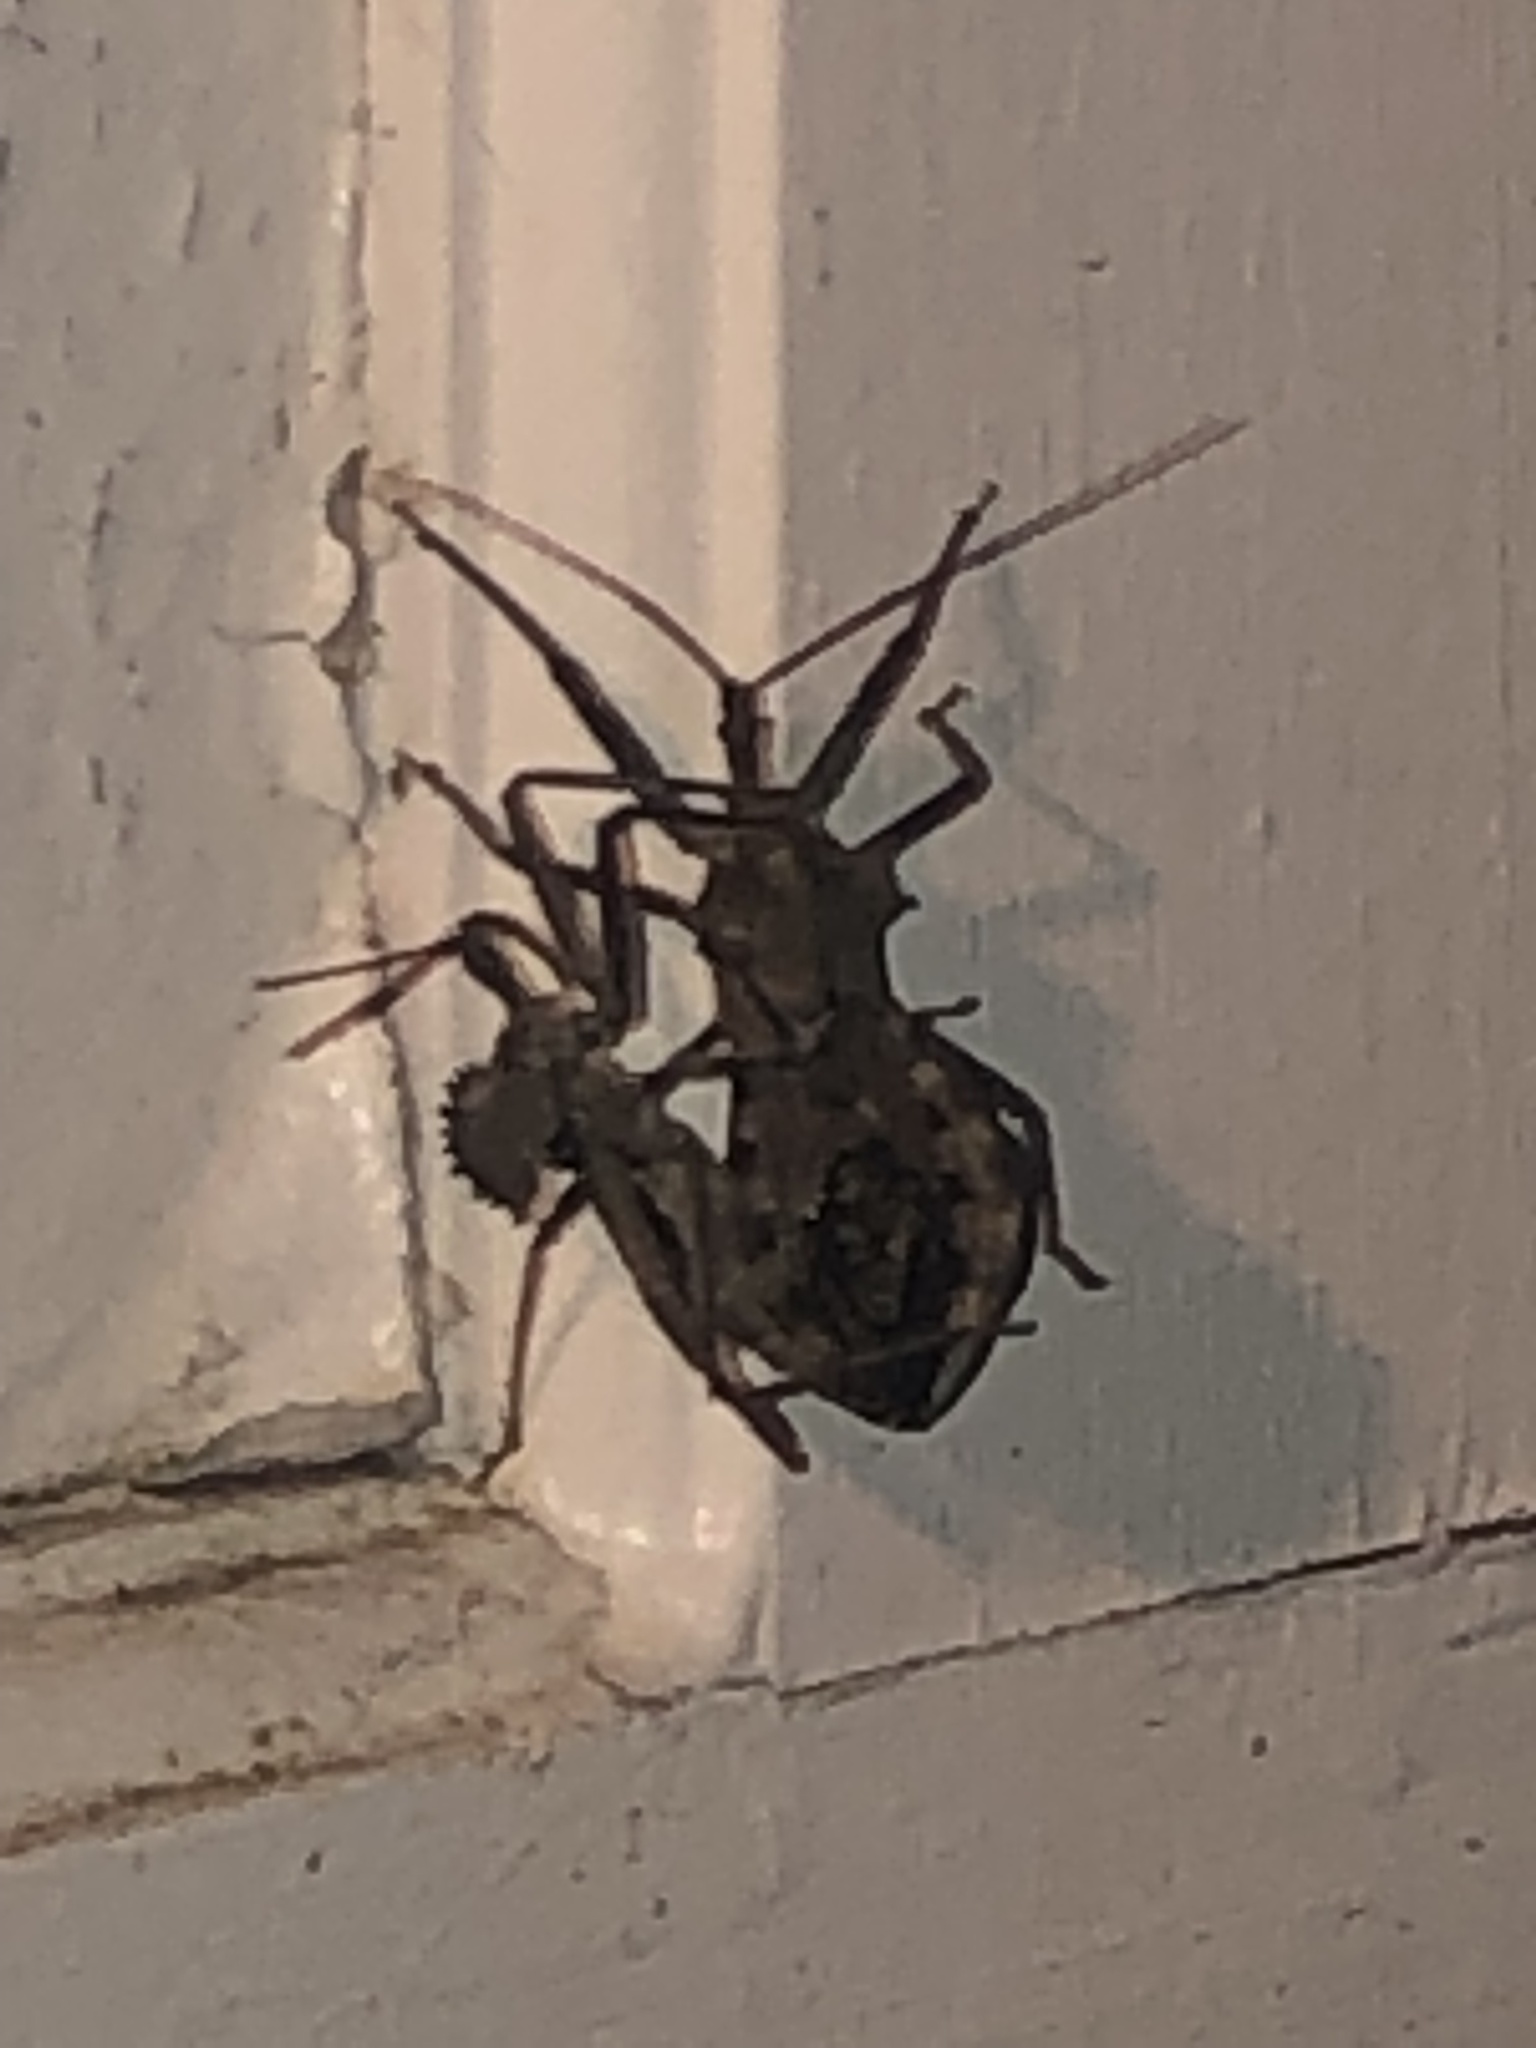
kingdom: Animalia
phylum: Arthropoda
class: Insecta
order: Hemiptera
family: Reduviidae
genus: Arilus
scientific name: Arilus cristatus
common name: North american wheel bug
